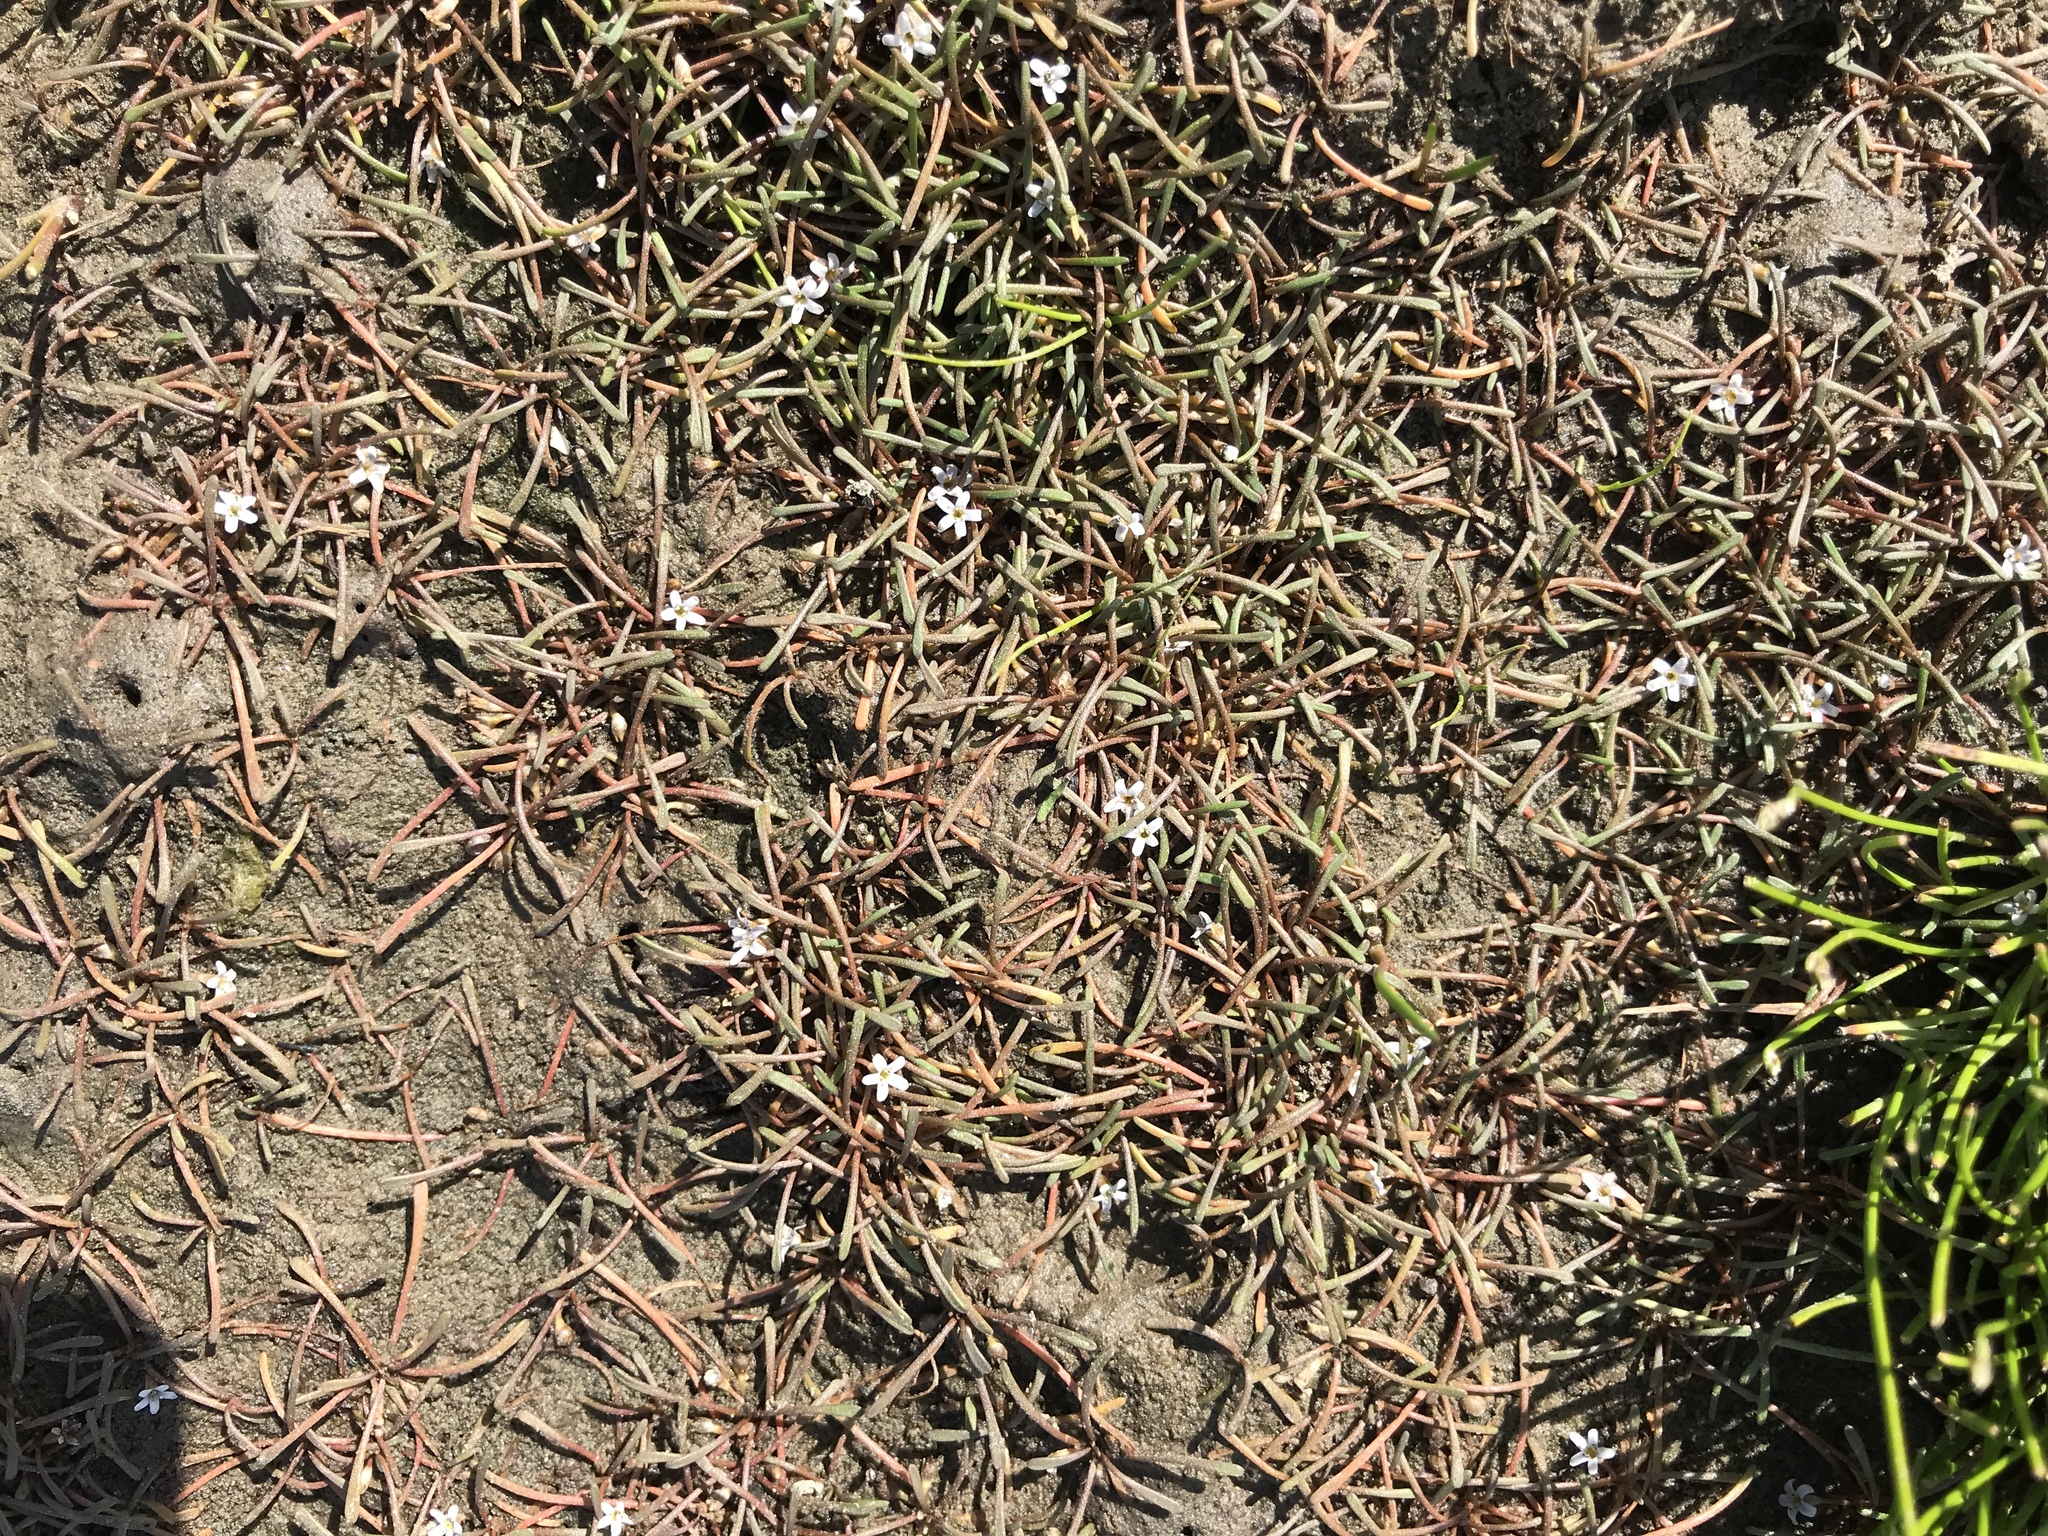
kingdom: Plantae
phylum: Tracheophyta
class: Magnoliopsida
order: Lamiales
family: Scrophulariaceae
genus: Limosella
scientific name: Limosella australis
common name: Welsh mudwort
